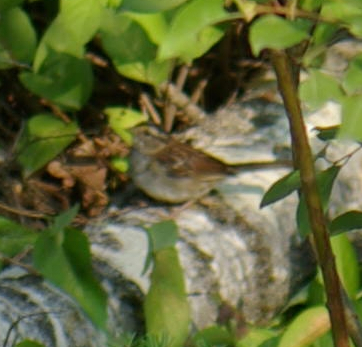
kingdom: Animalia
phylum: Chordata
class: Aves
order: Passeriformes
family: Passerellidae
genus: Zonotrichia
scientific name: Zonotrichia albicollis
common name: White-throated sparrow
